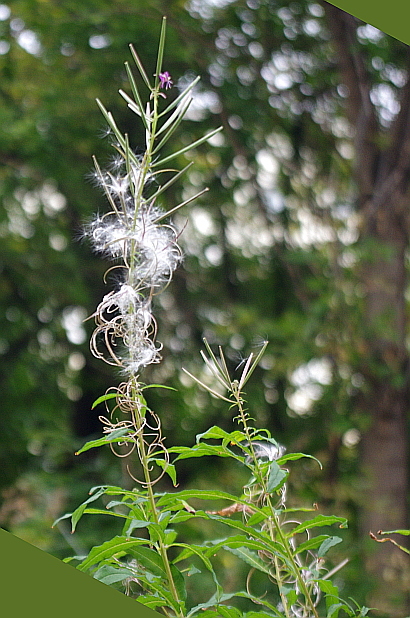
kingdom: Plantae
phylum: Tracheophyta
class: Magnoliopsida
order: Myrtales
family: Onagraceae
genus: Chamaenerion
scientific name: Chamaenerion angustifolium
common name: Fireweed
